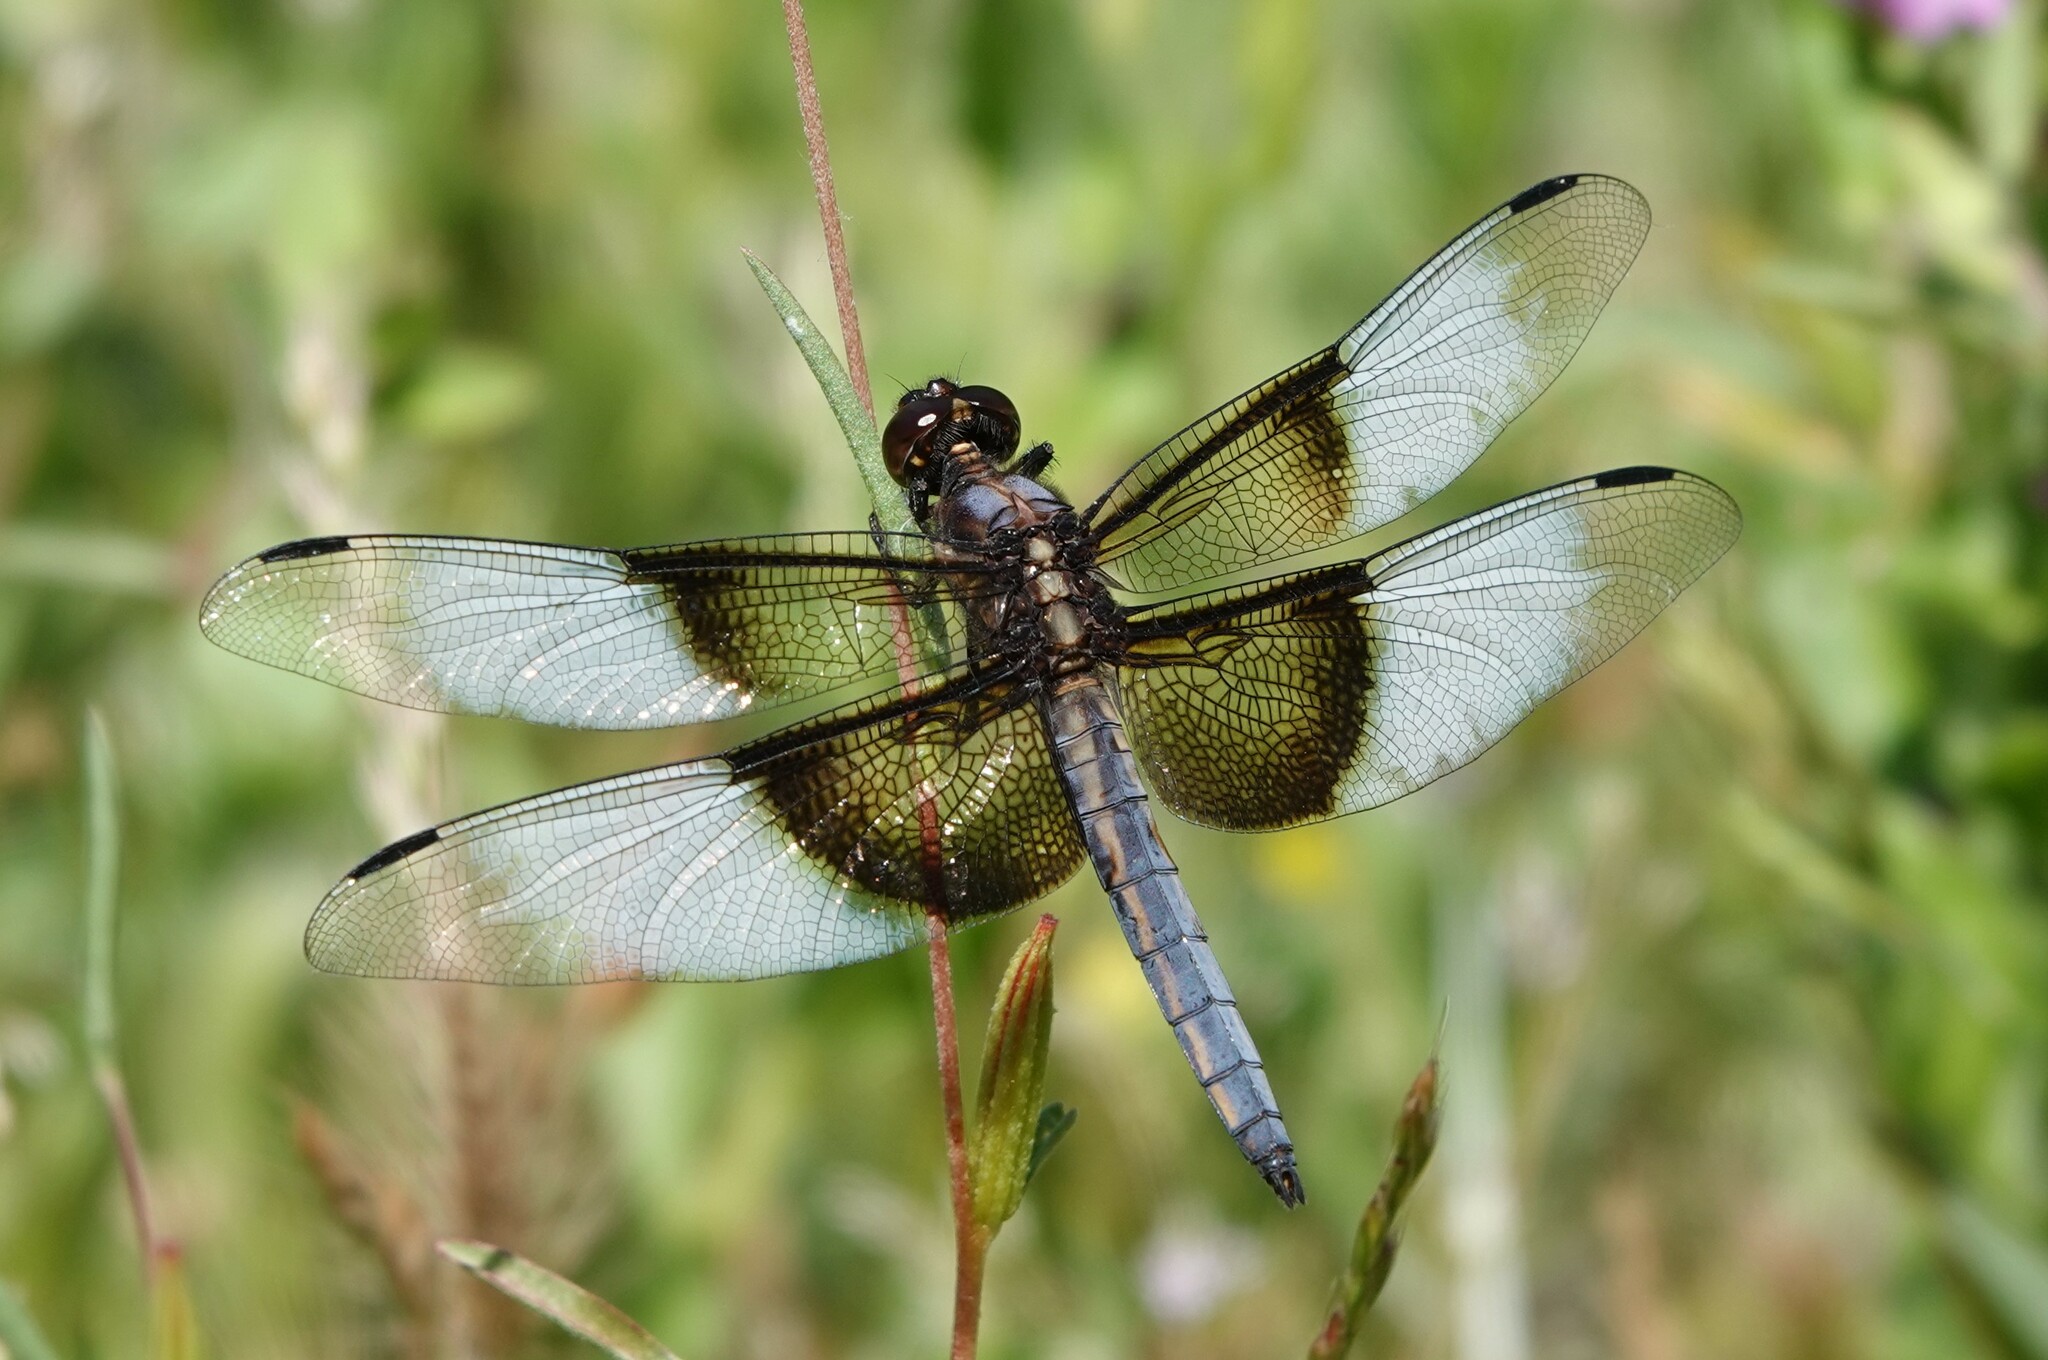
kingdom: Animalia
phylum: Arthropoda
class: Insecta
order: Odonata
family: Libellulidae
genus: Libellula
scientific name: Libellula luctuosa
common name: Widow skimmer
